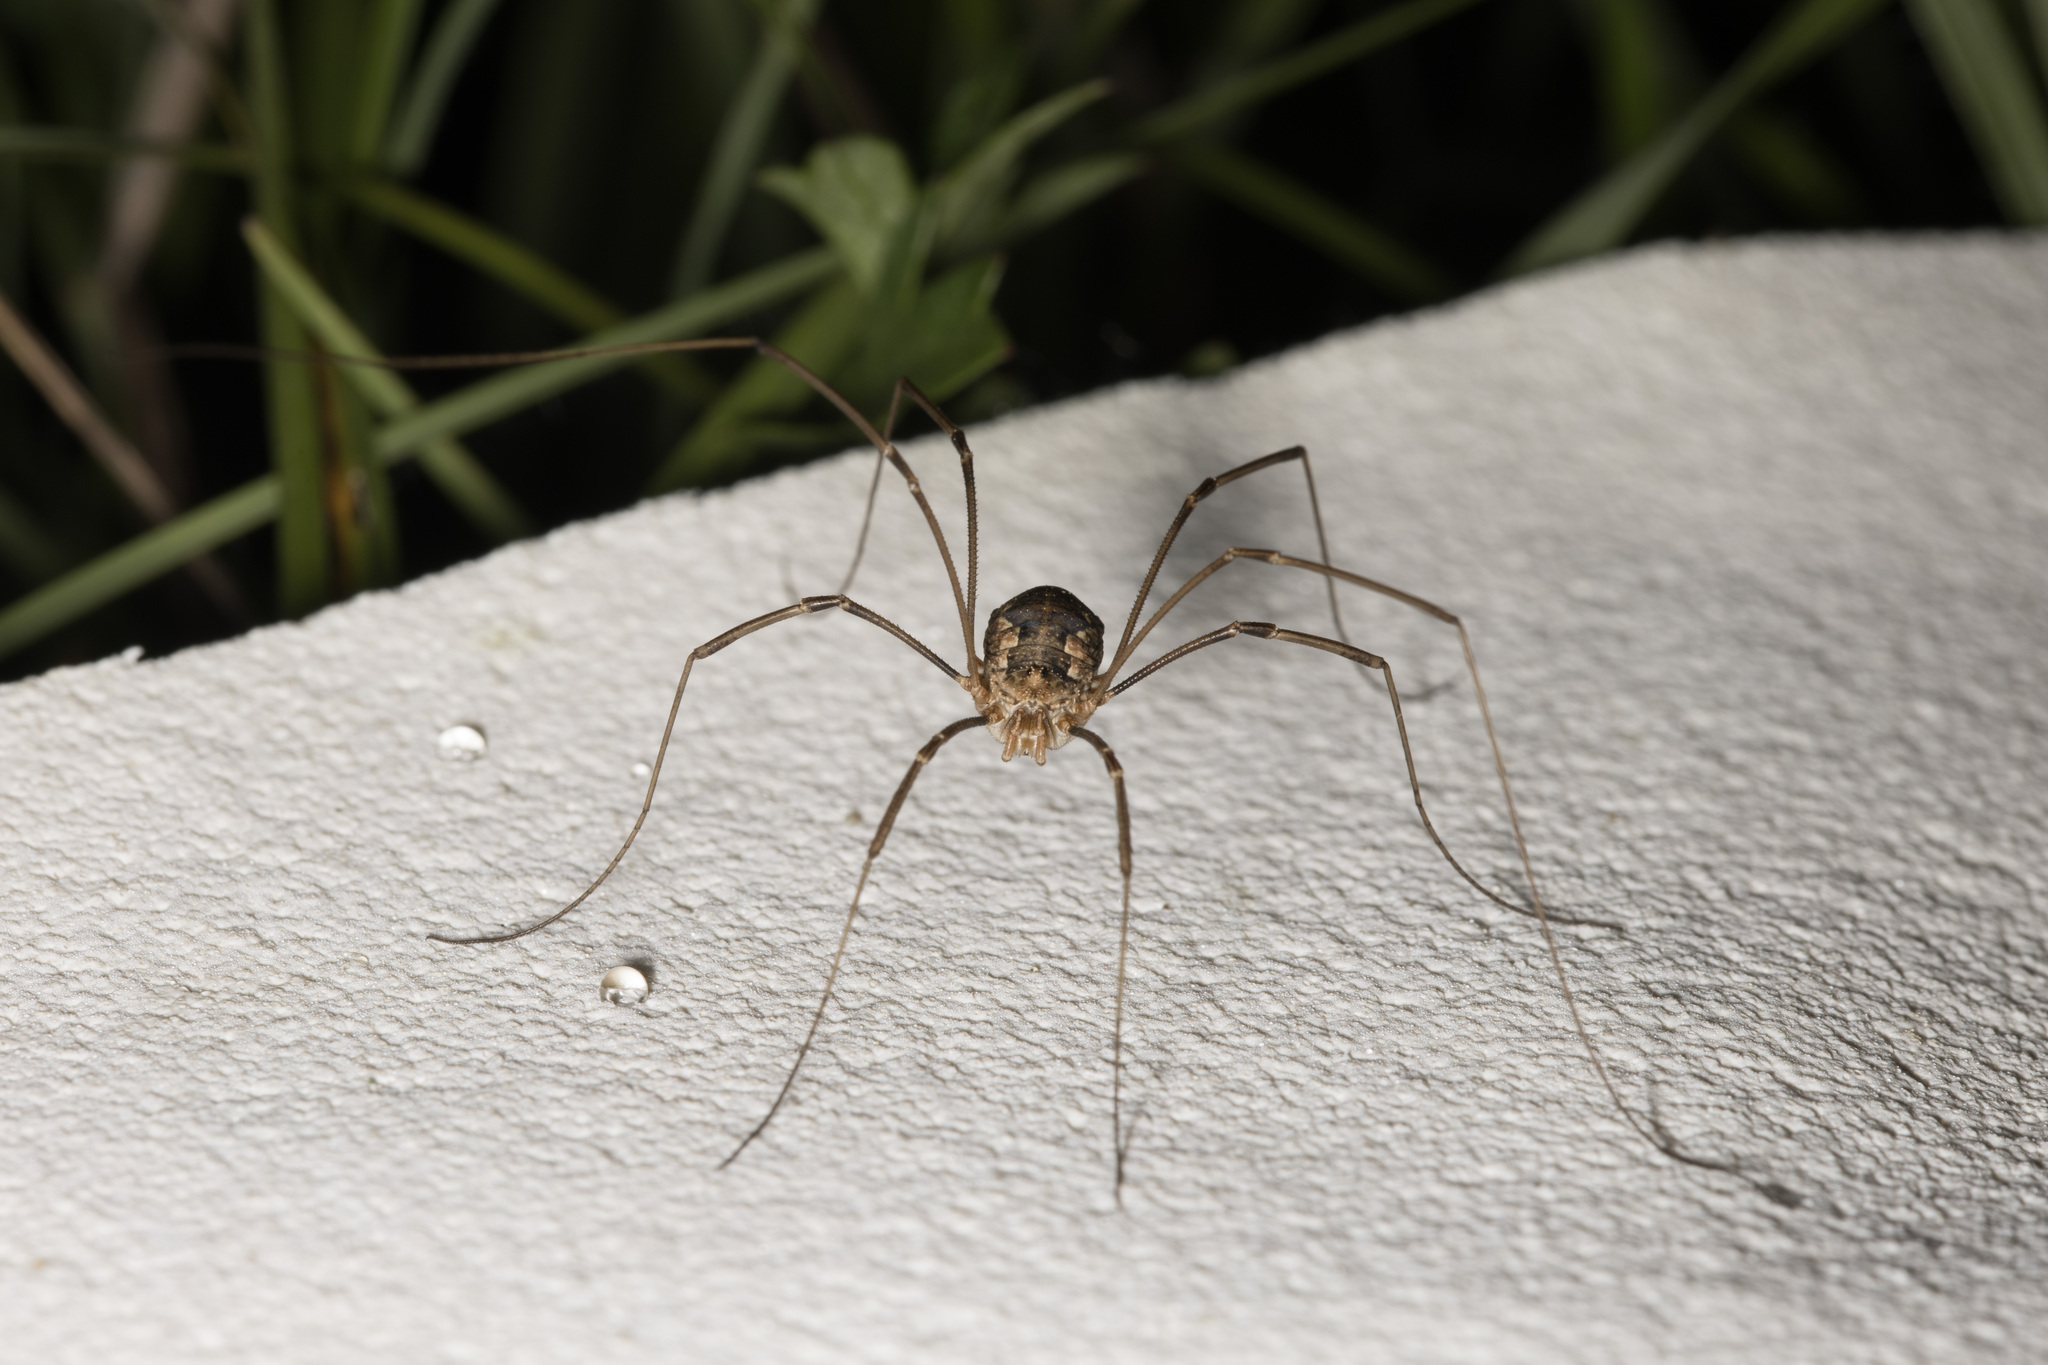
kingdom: Animalia
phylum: Arthropoda
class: Arachnida
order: Opiliones
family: Phalangiidae
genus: Phalangium
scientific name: Phalangium opilio
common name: Daddy longleg
